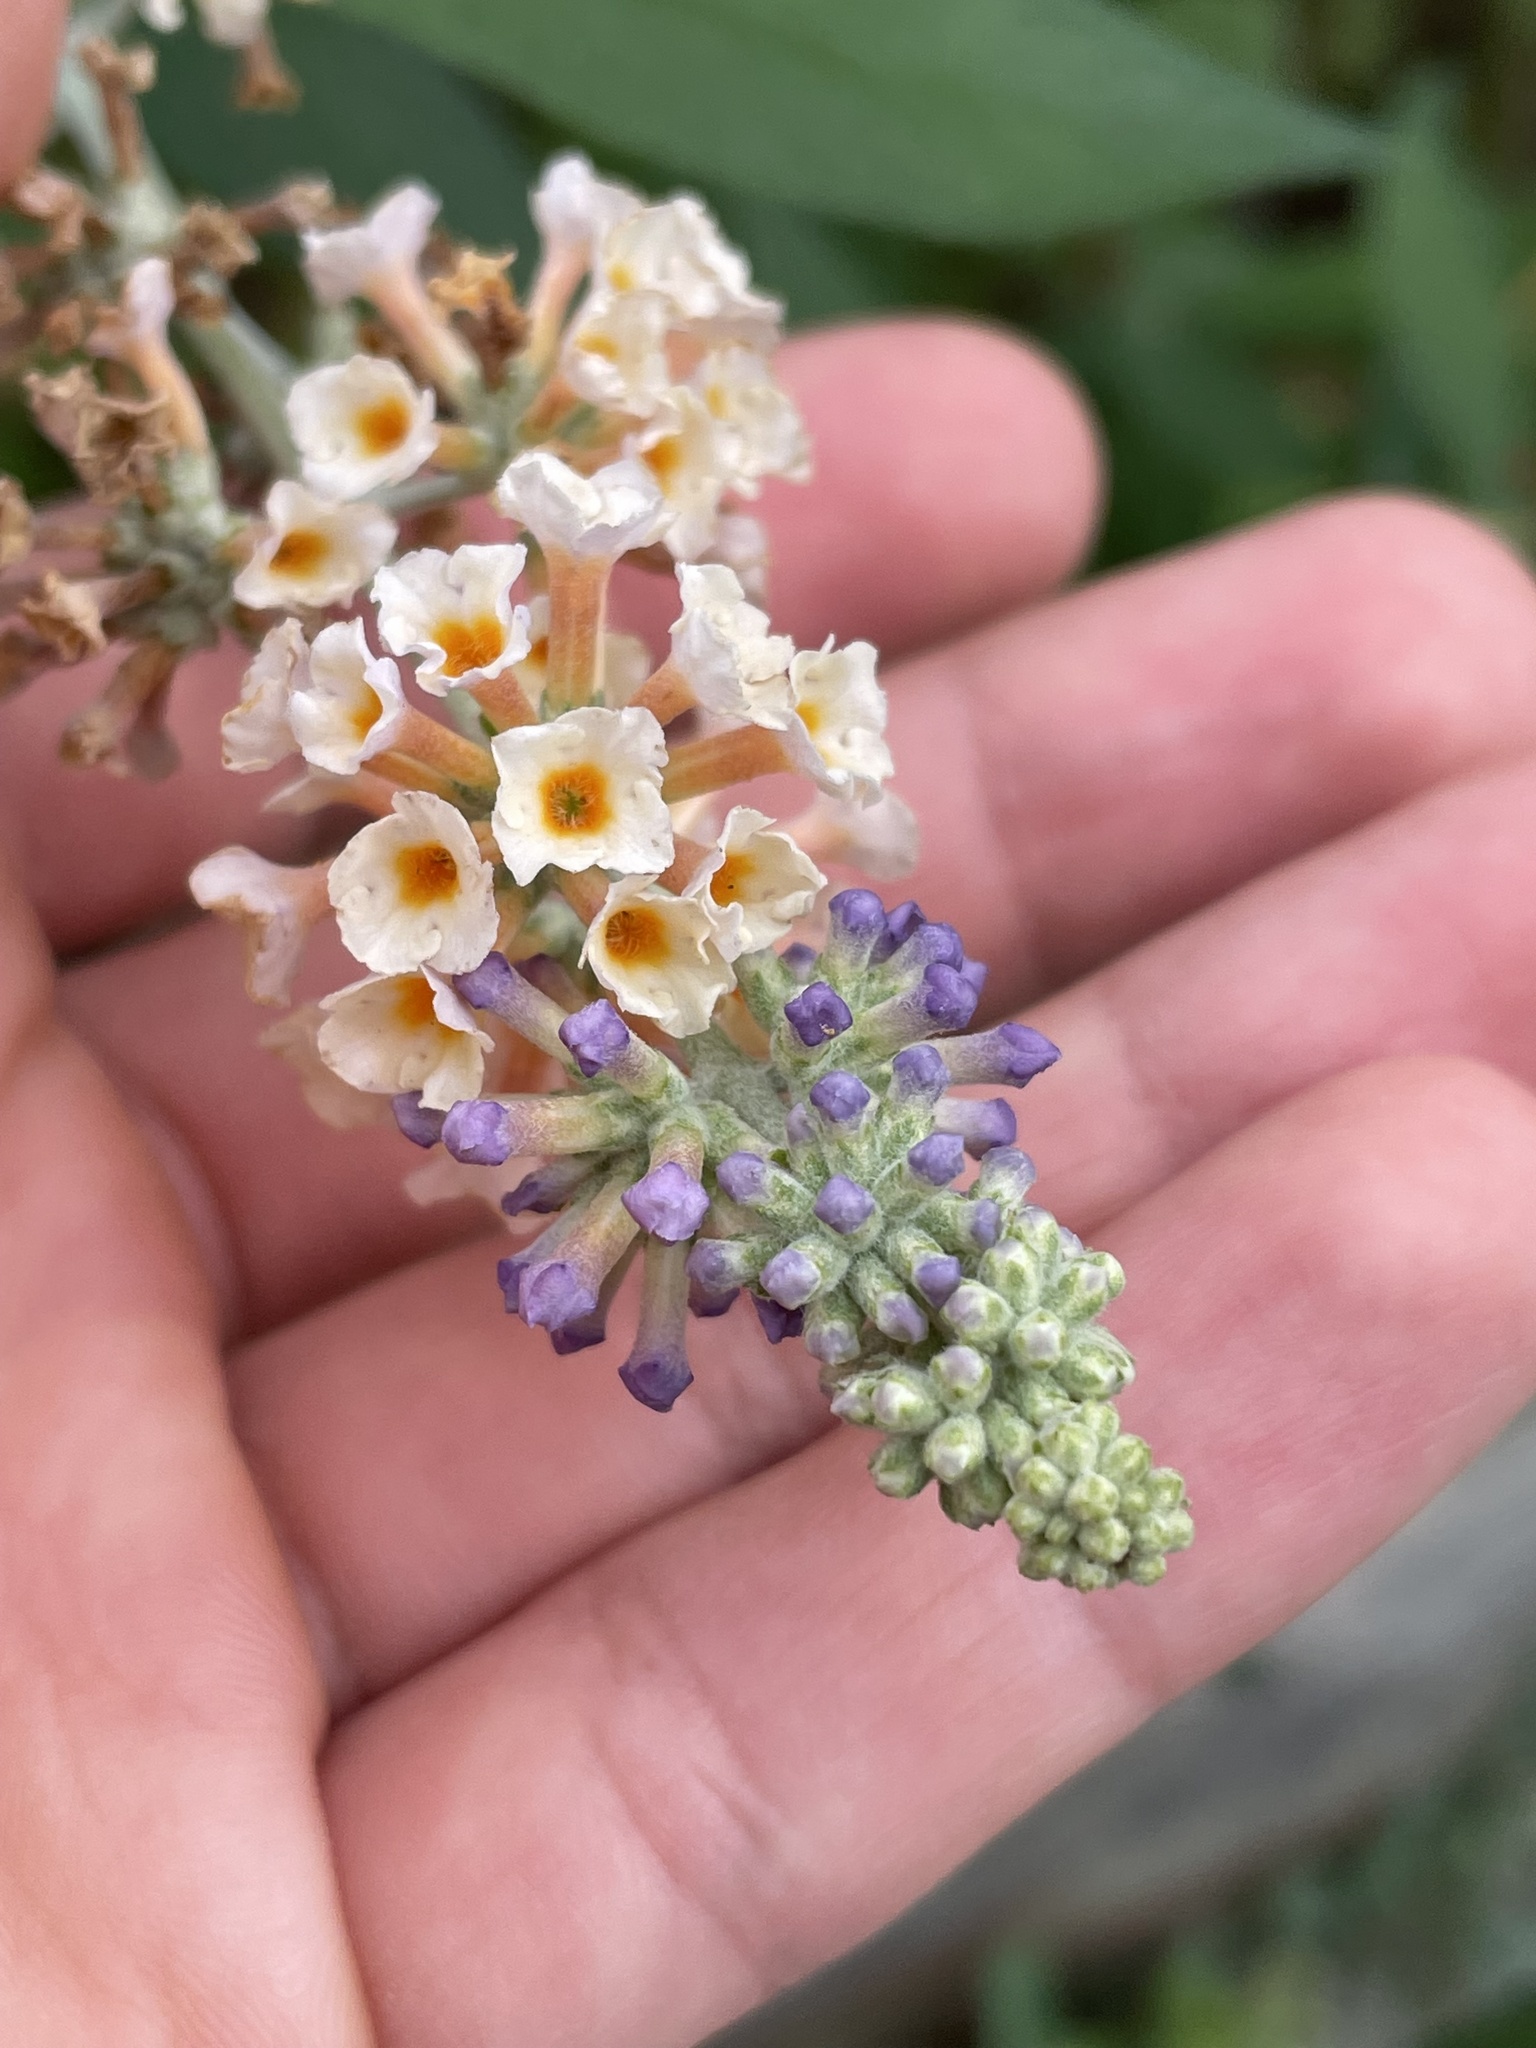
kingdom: Plantae
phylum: Tracheophyta
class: Magnoliopsida
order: Lamiales
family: Scrophulariaceae
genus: Buddleja
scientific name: Buddleja davidii
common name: Butterfly-bush
